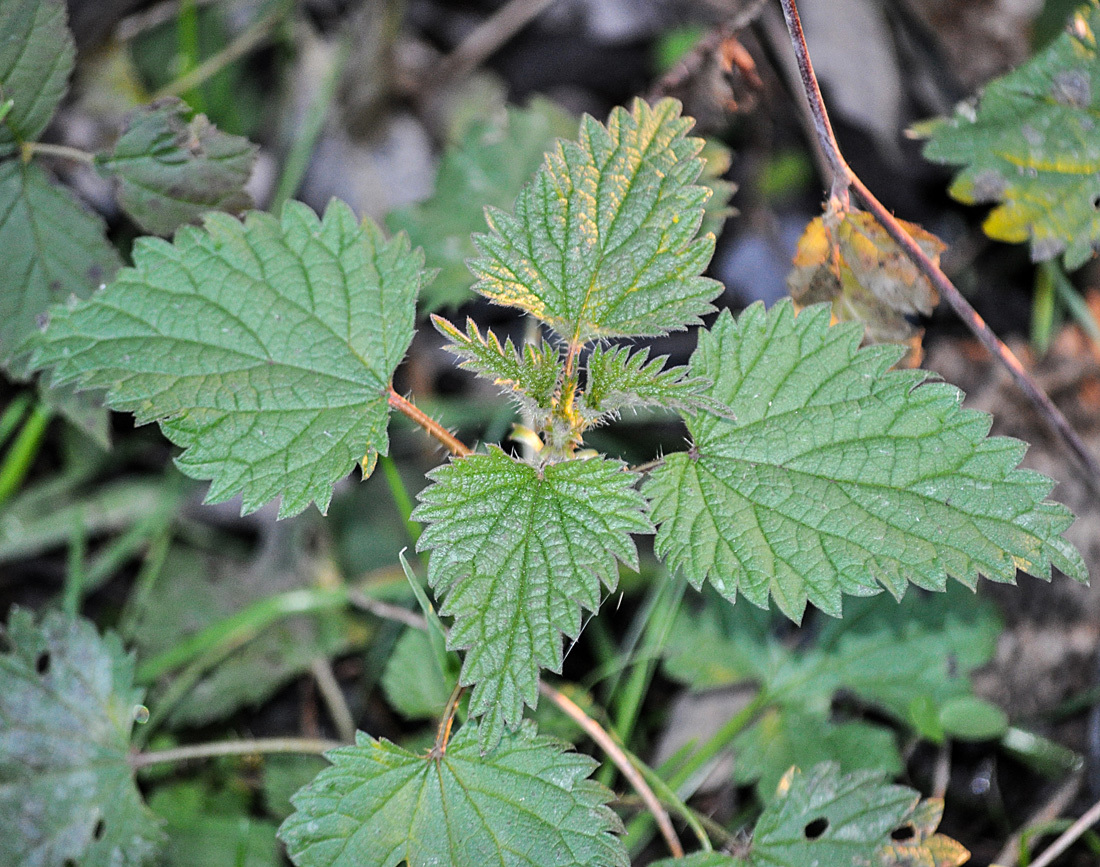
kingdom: Plantae
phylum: Tracheophyta
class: Magnoliopsida
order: Rosales
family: Urticaceae
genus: Urtica
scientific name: Urtica dioica
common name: Common nettle
